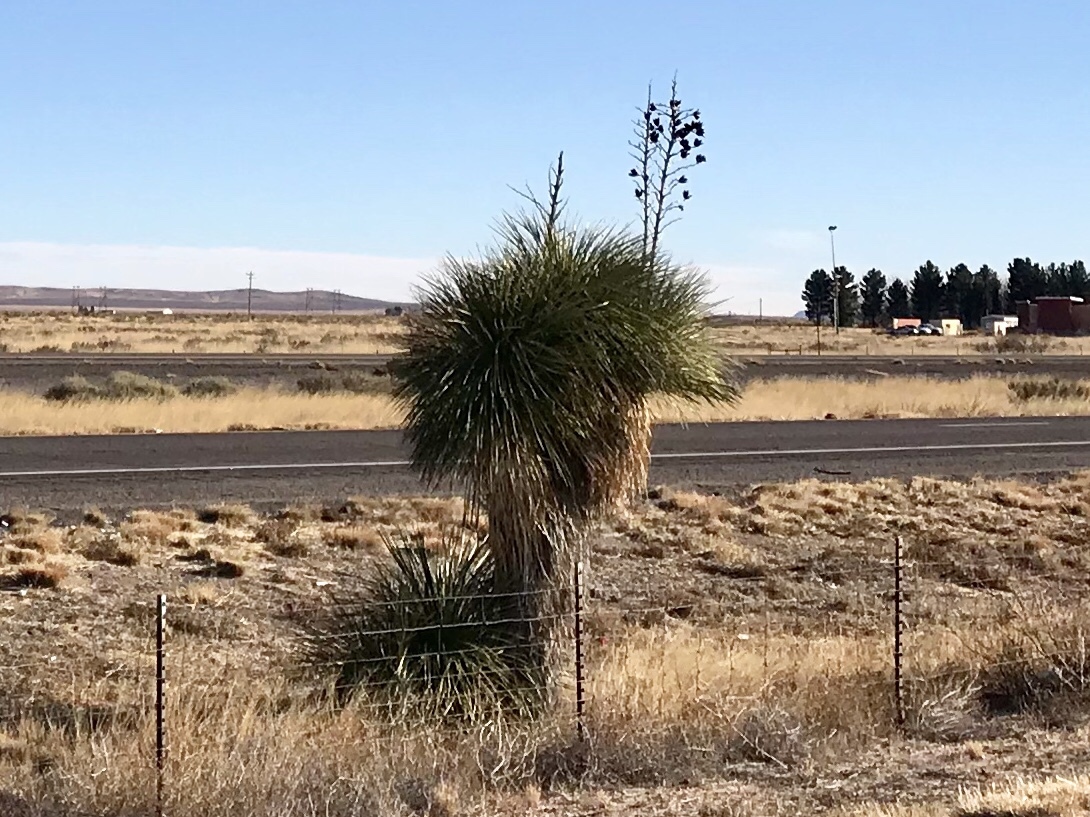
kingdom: Plantae
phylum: Tracheophyta
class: Liliopsida
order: Asparagales
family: Asparagaceae
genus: Yucca
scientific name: Yucca elata
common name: Palmella
